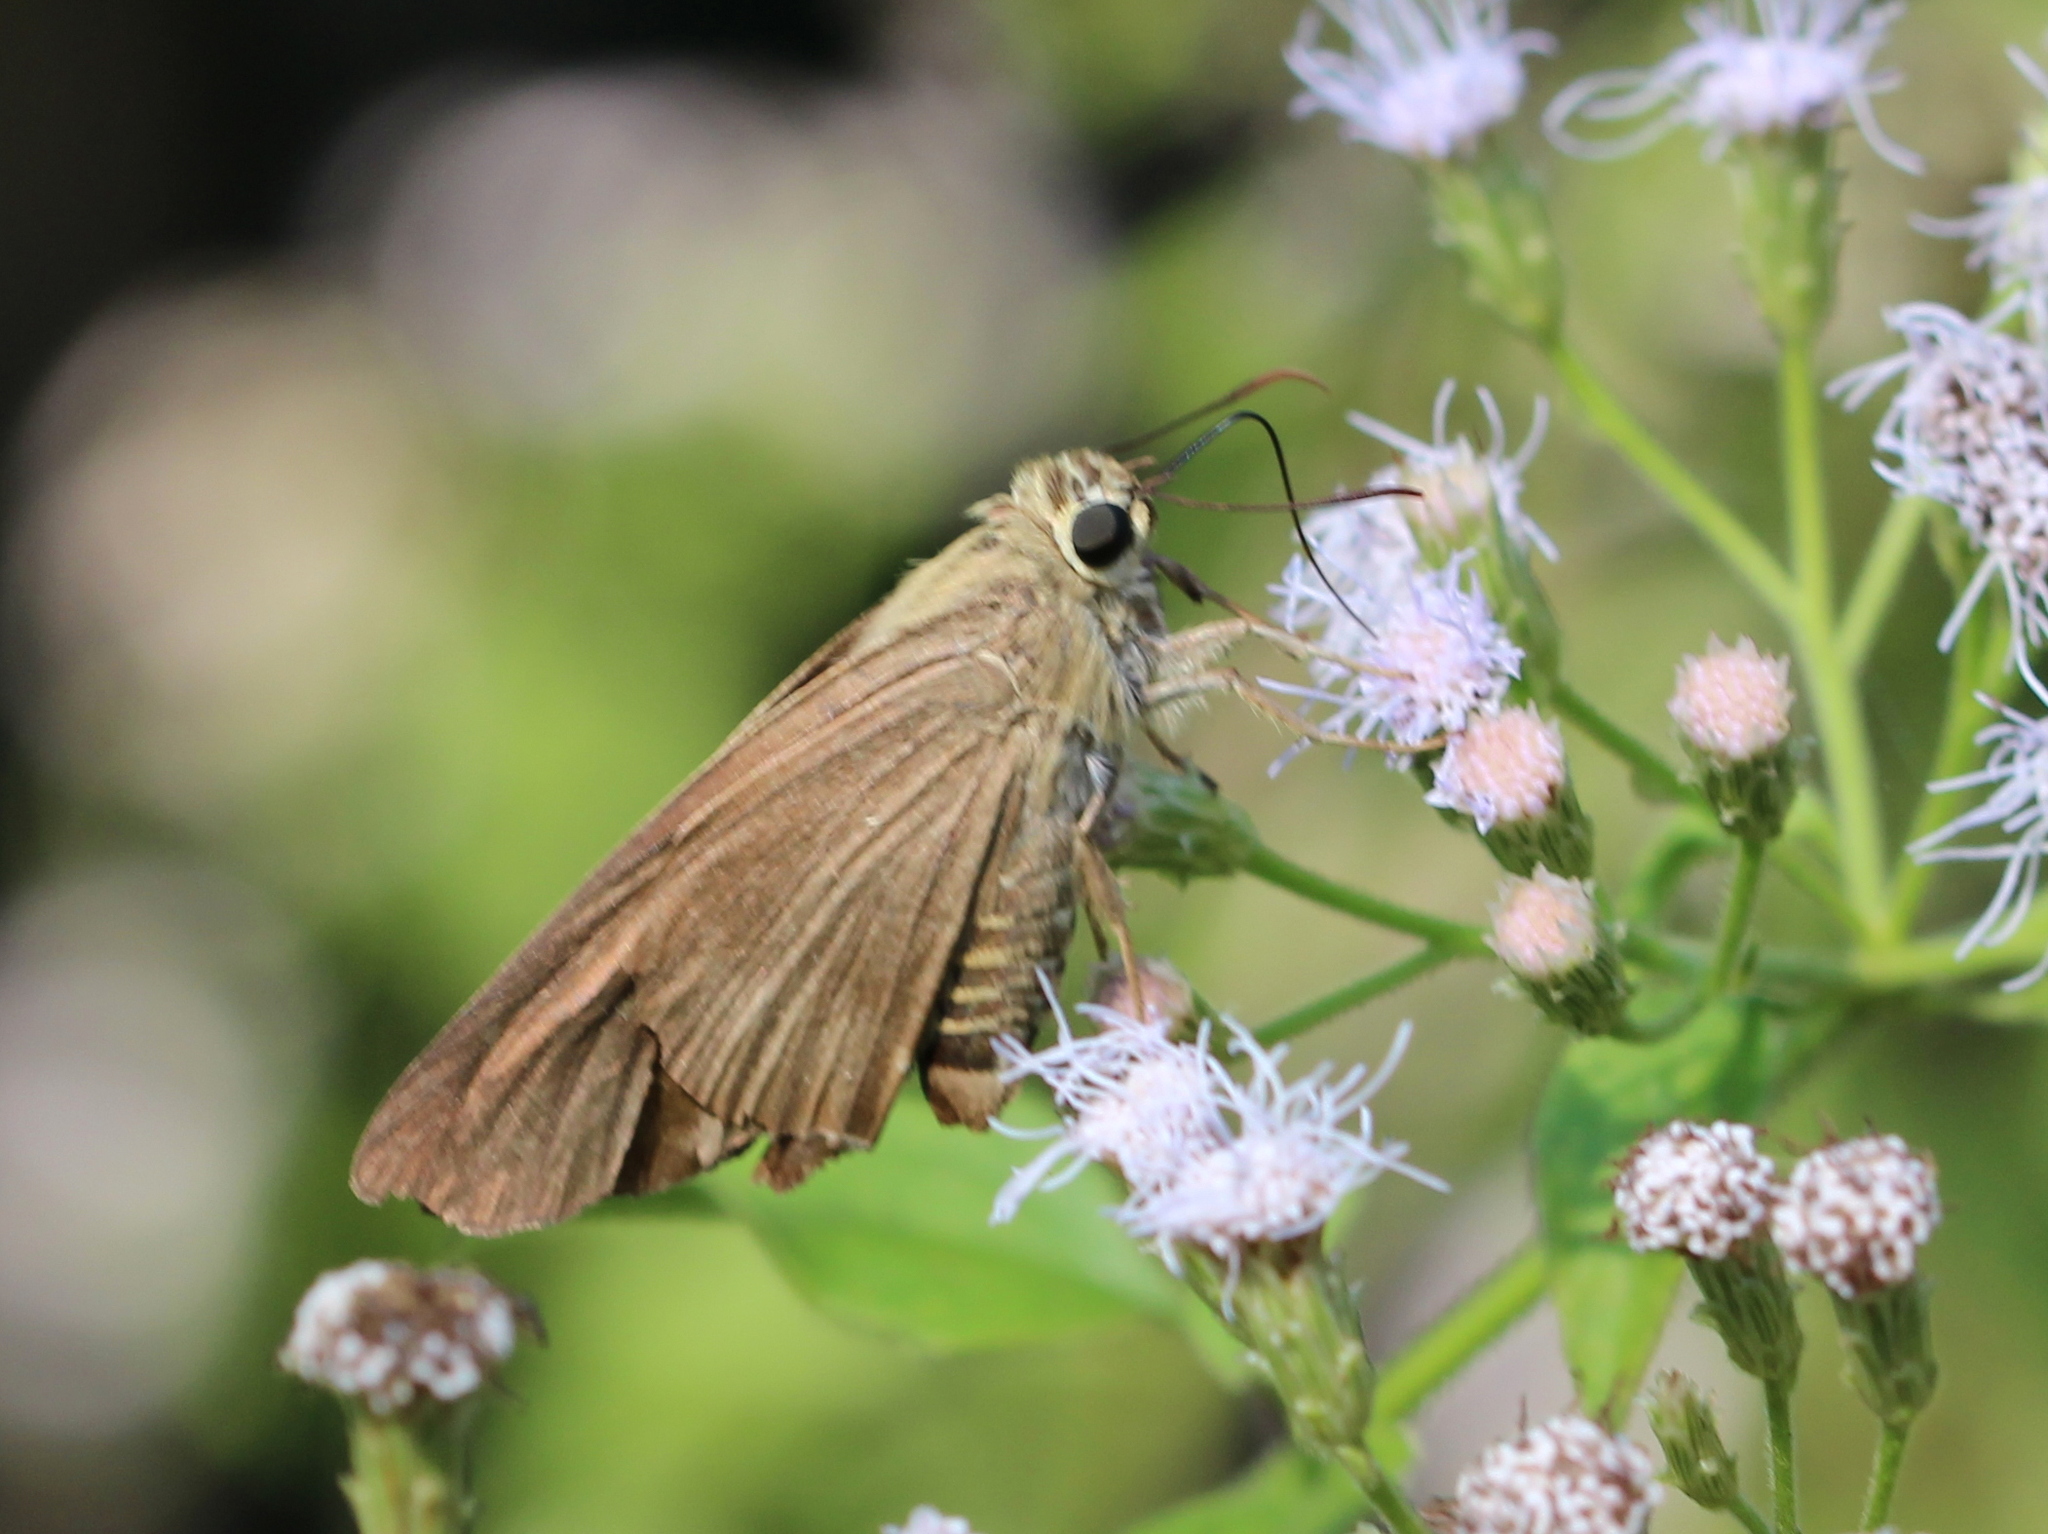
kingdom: Animalia
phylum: Arthropoda
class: Insecta
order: Lepidoptera
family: Nymphalidae
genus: Ypthima
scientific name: Ypthima huebneri
